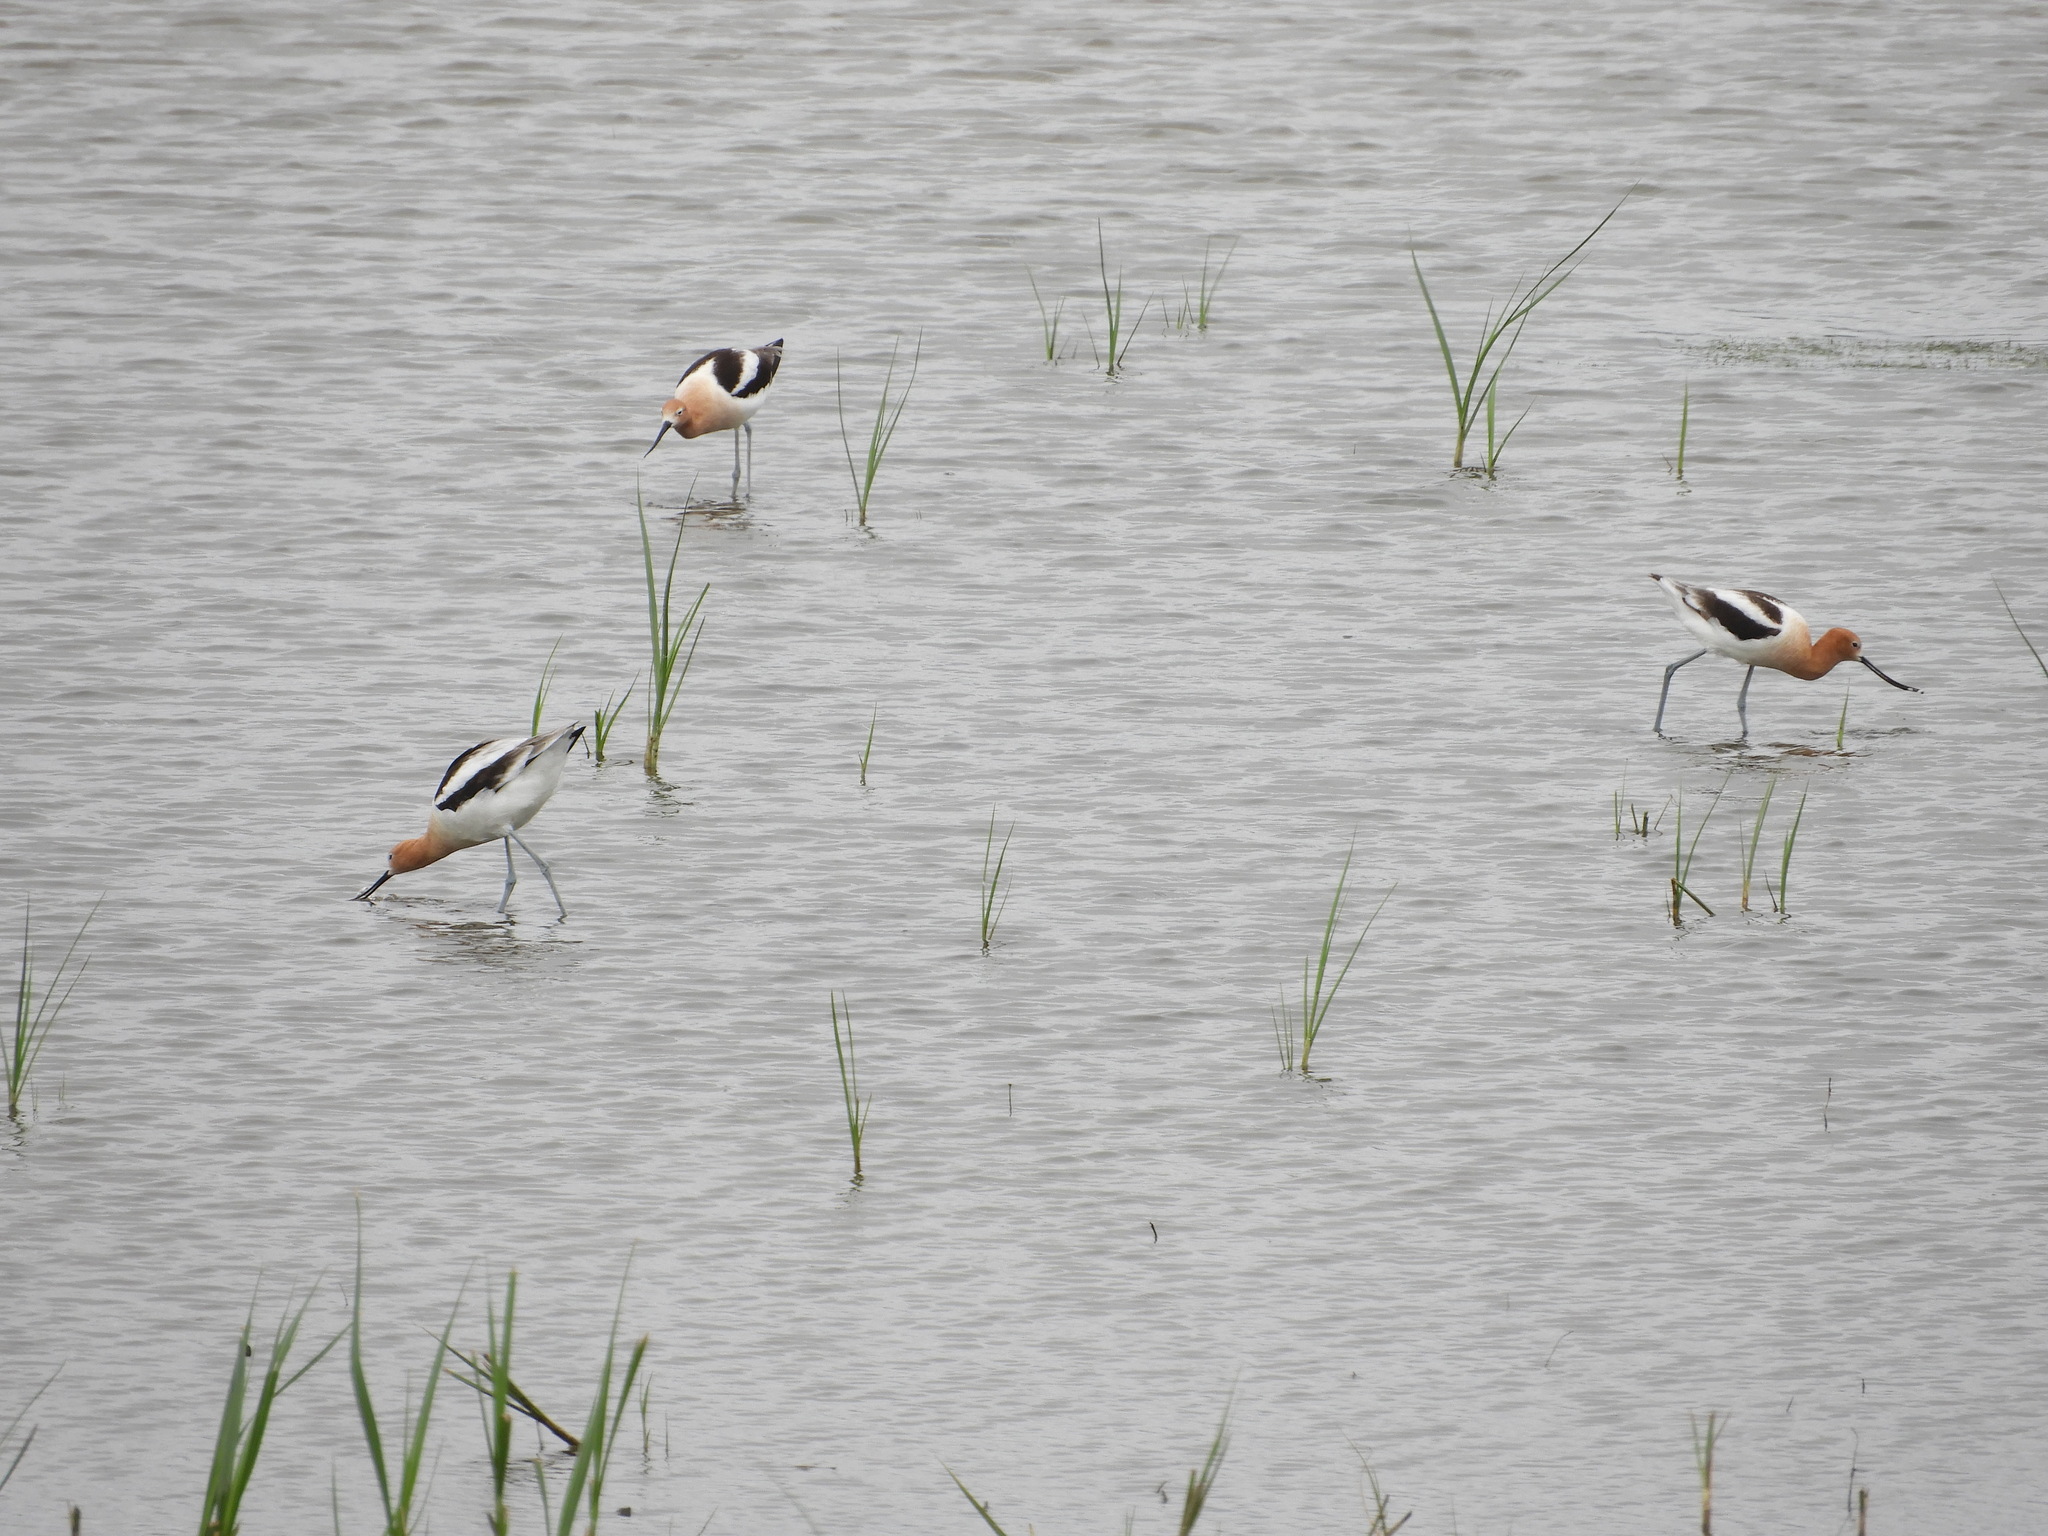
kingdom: Animalia
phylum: Chordata
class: Aves
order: Charadriiformes
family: Recurvirostridae
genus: Recurvirostra
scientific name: Recurvirostra americana
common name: American avocet
